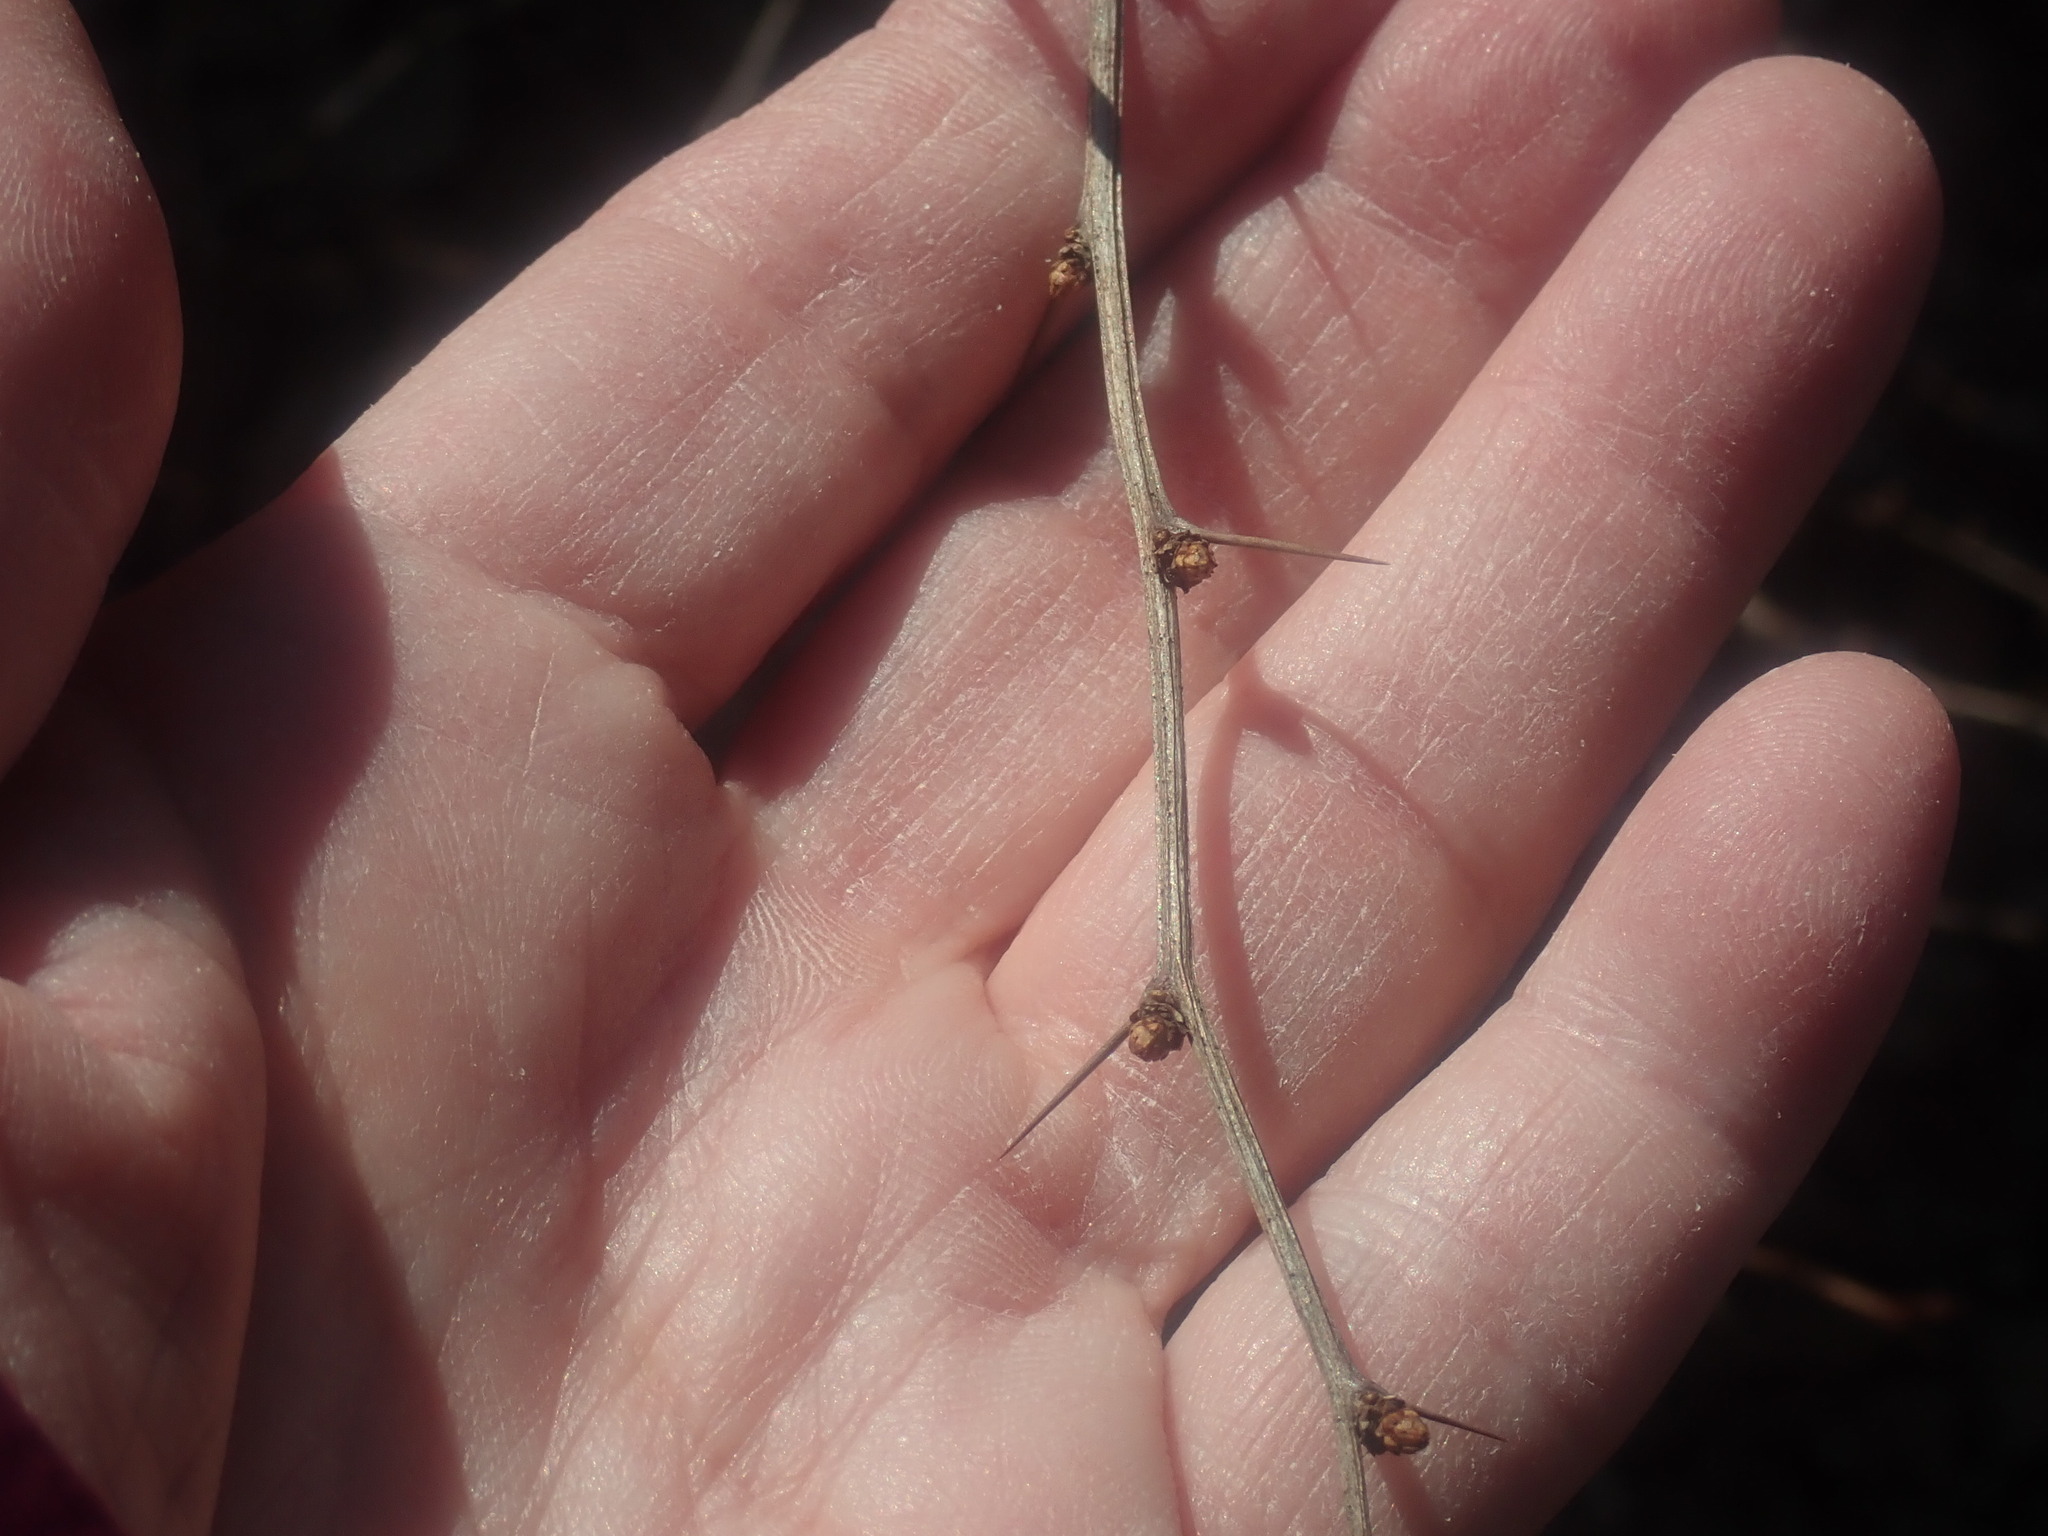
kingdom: Plantae
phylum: Tracheophyta
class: Magnoliopsida
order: Ranunculales
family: Berberidaceae
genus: Berberis
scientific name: Berberis thunbergii
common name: Japanese barberry
